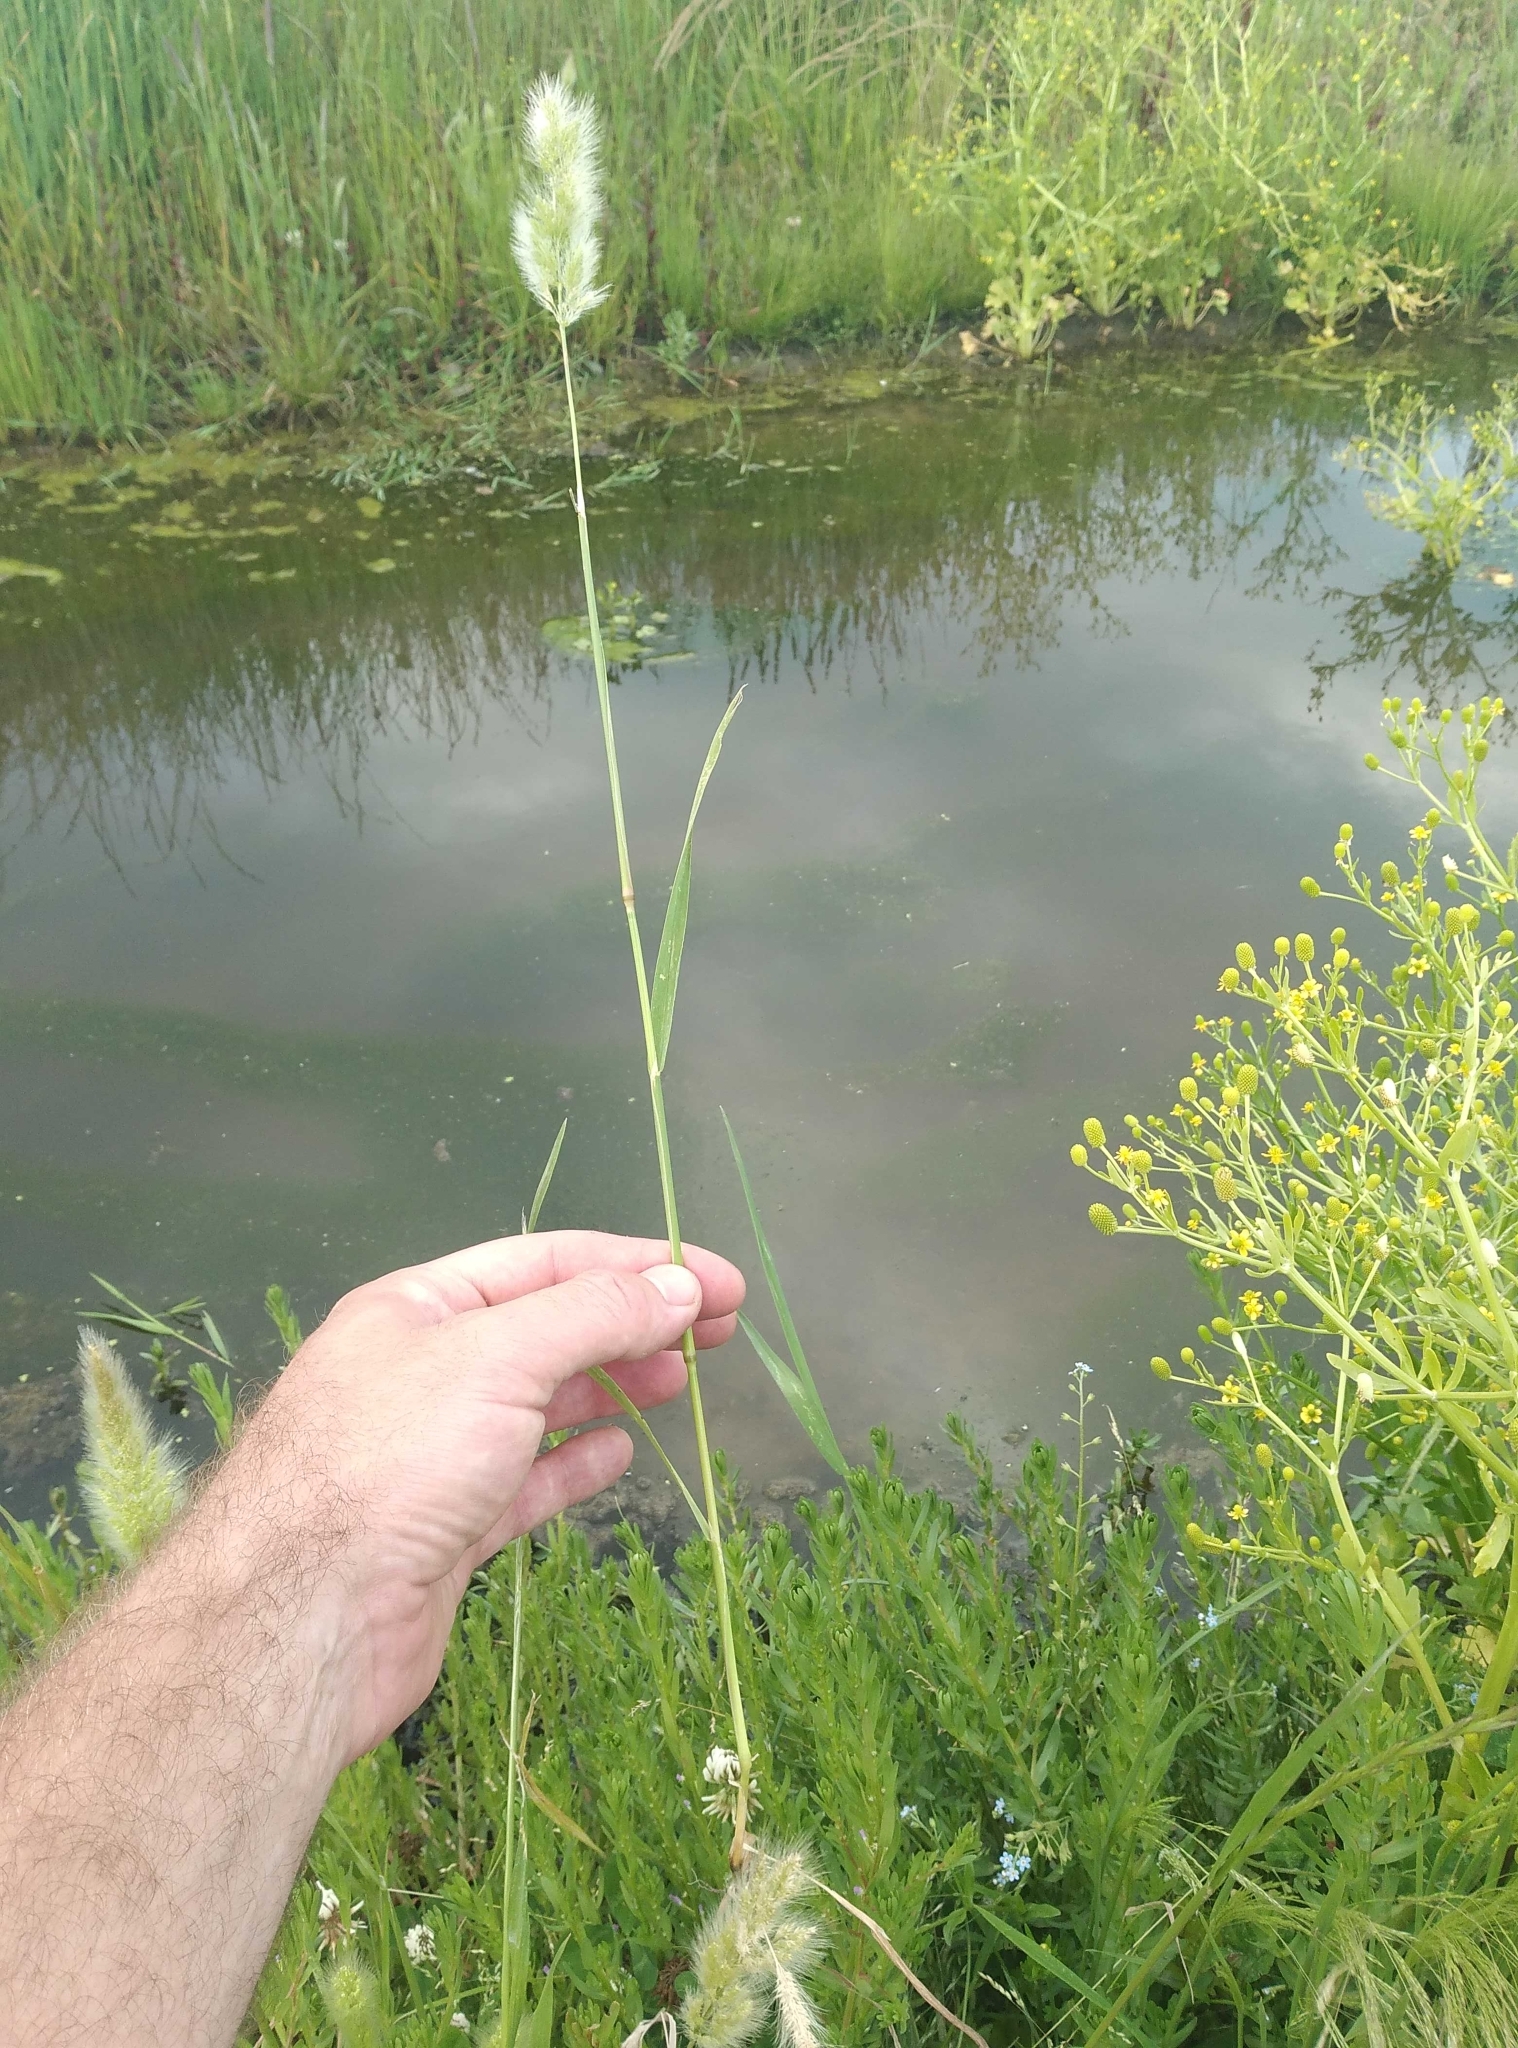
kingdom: Plantae
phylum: Tracheophyta
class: Liliopsida
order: Poales
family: Poaceae
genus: Polypogon
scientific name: Polypogon monspeliensis
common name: Annual rabbitsfoot grass
